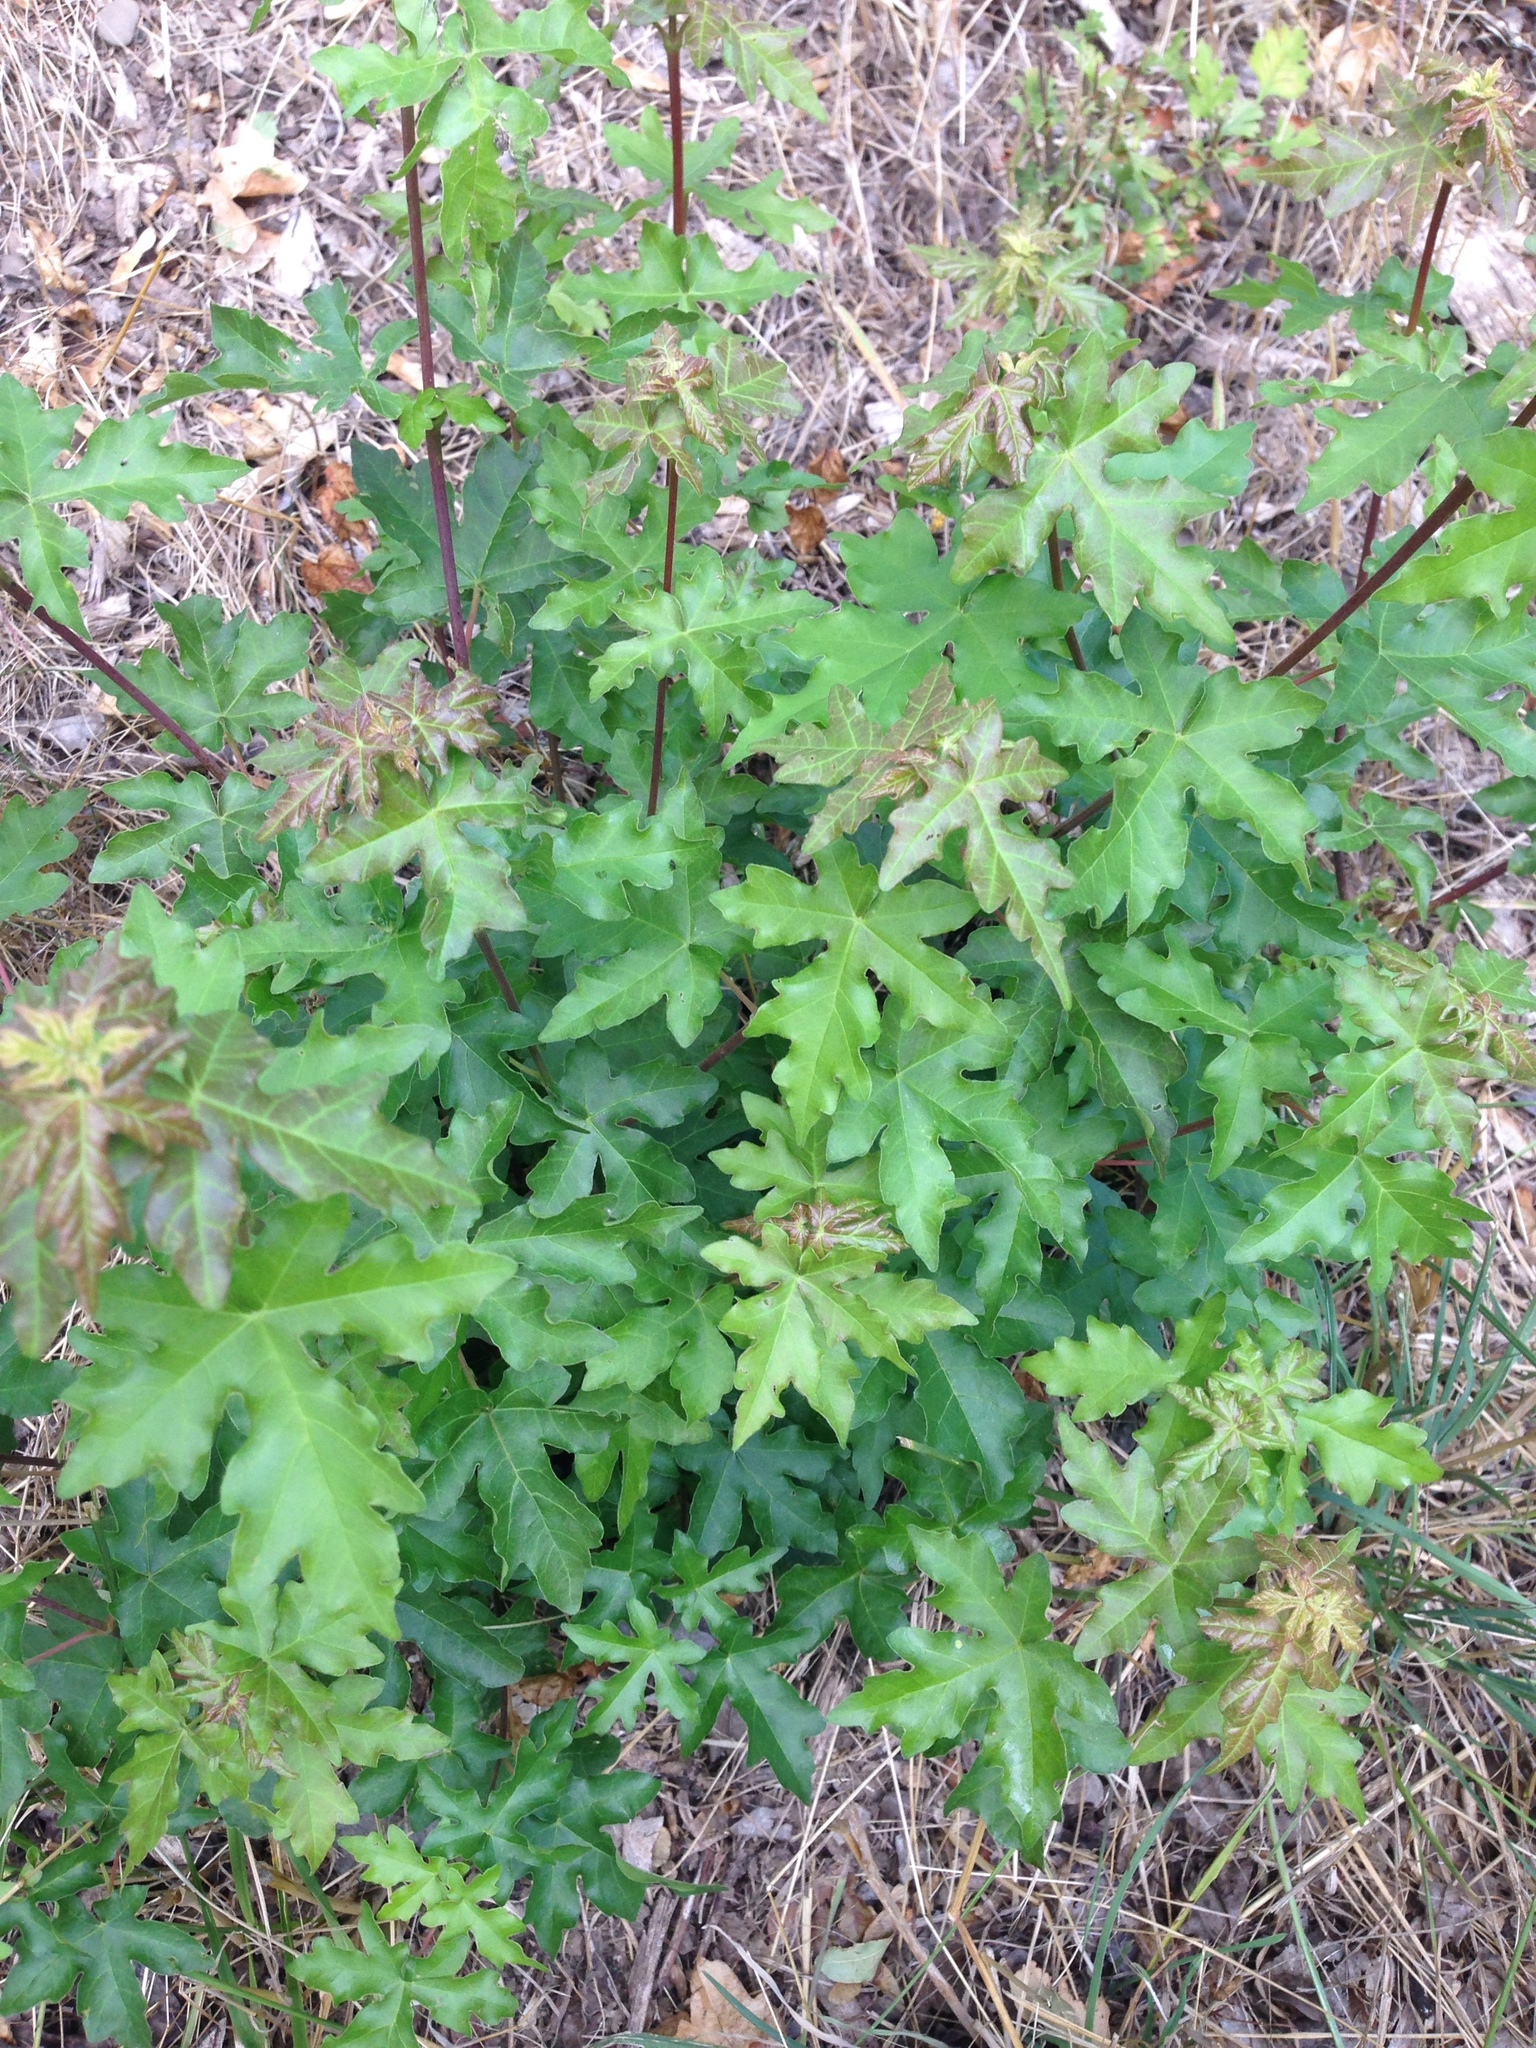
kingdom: Plantae
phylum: Tracheophyta
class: Magnoliopsida
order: Sapindales
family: Sapindaceae
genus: Acer
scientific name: Acer campestre
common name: Field maple
